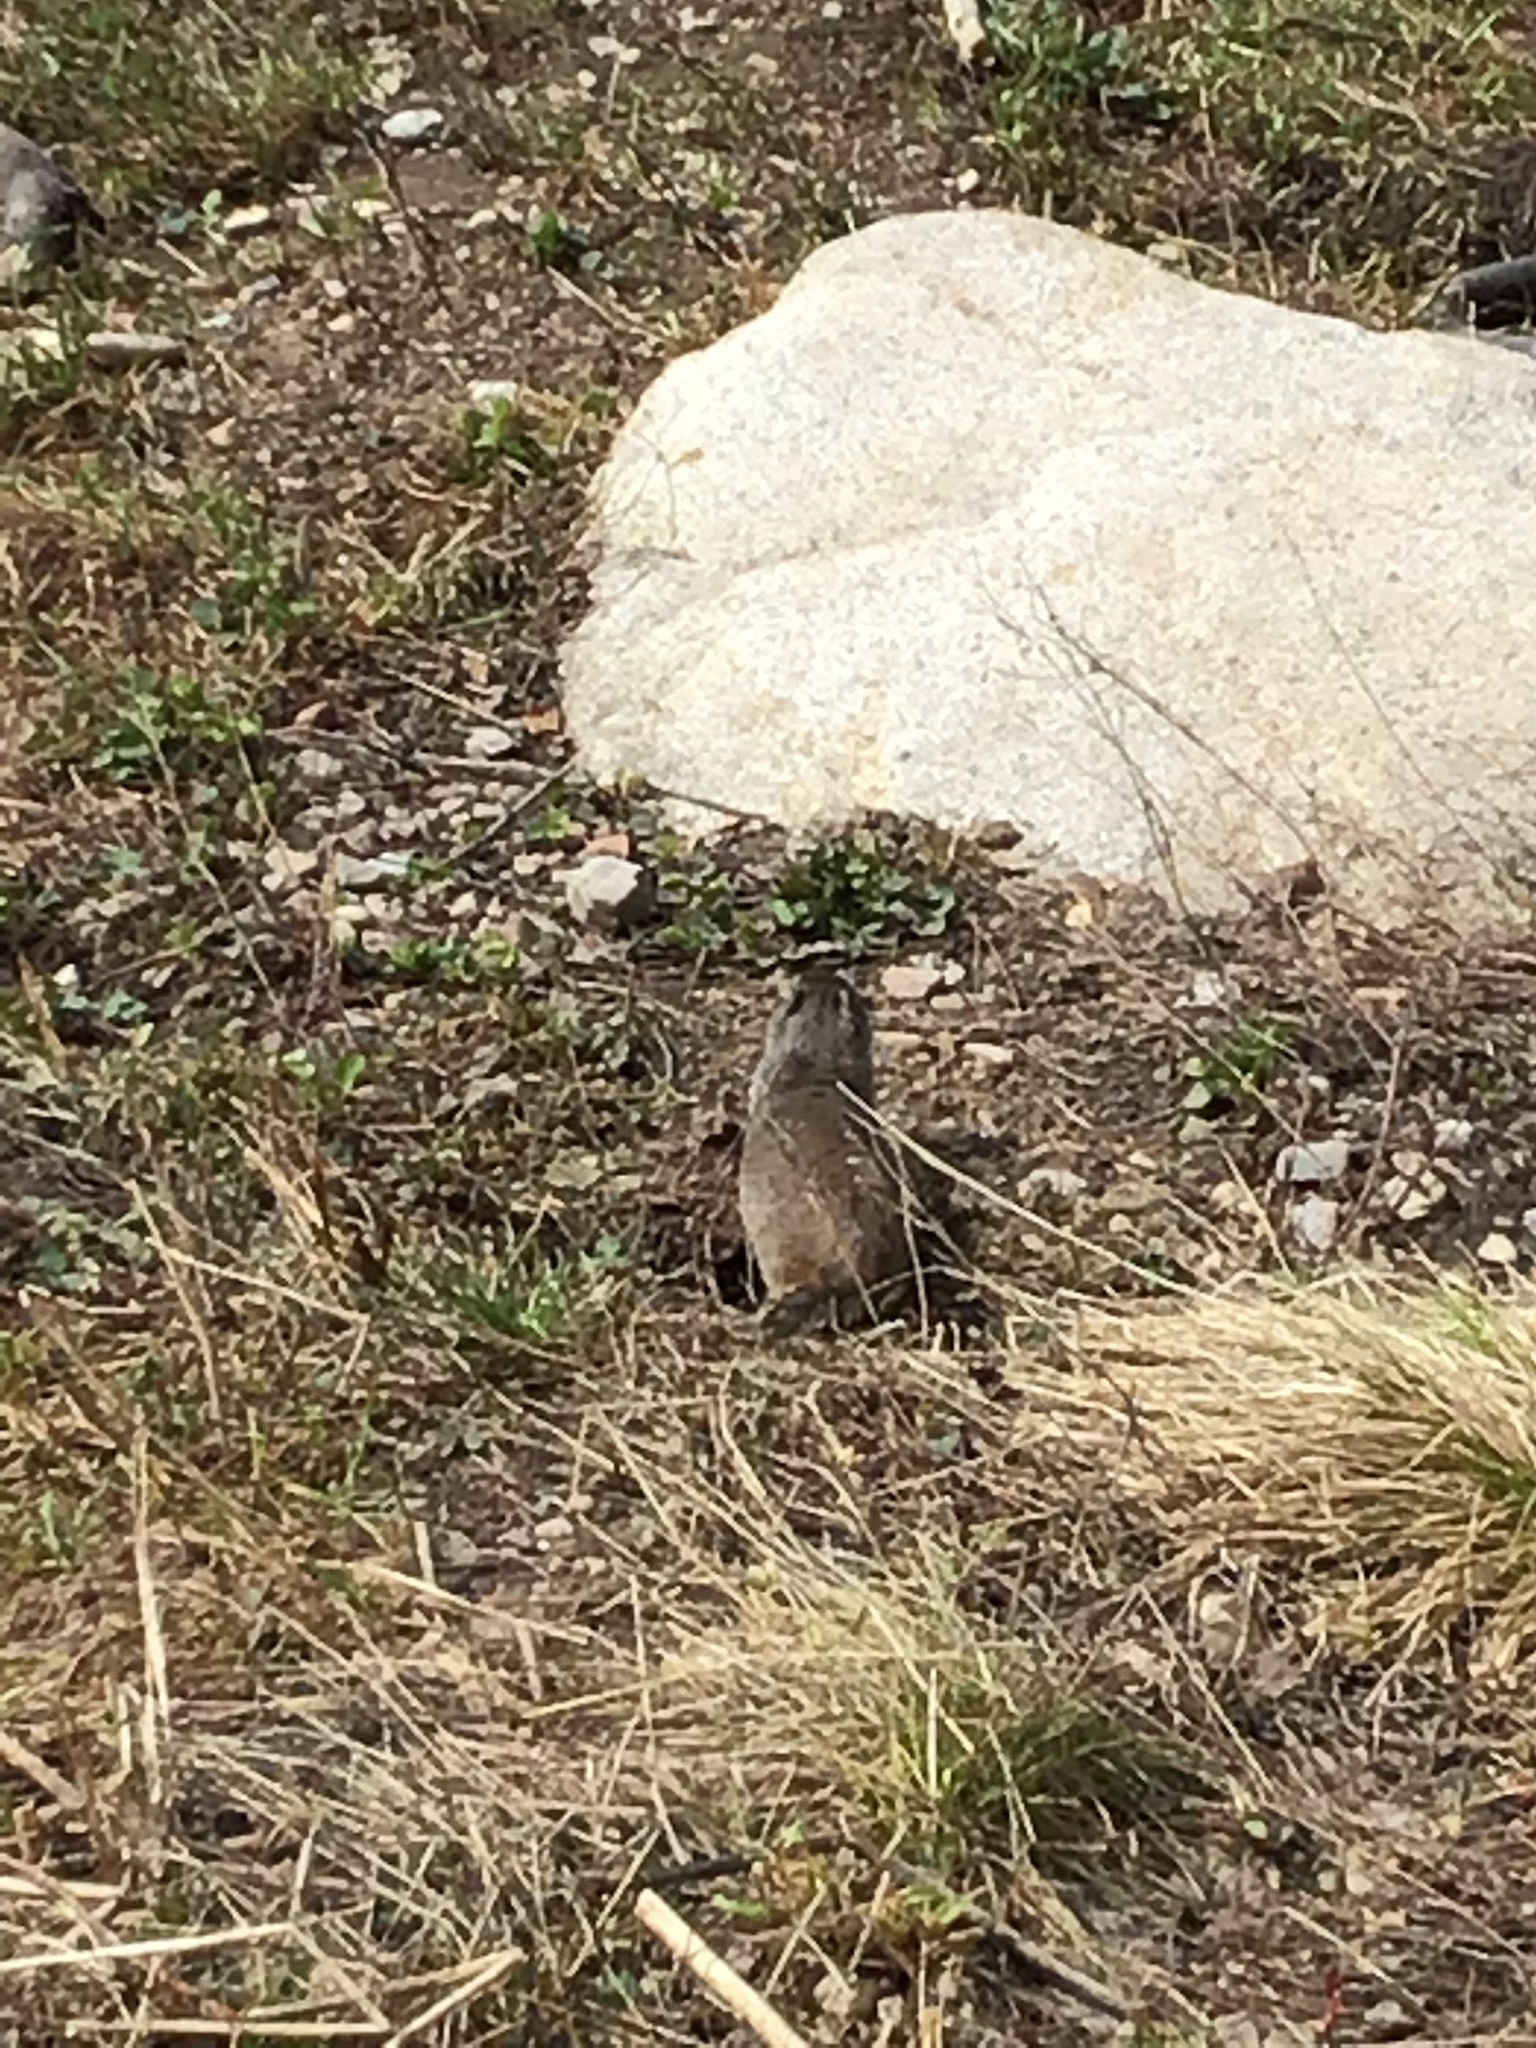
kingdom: Animalia
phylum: Chordata
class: Mammalia
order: Rodentia
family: Sciuridae
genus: Urocitellus
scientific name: Urocitellus armatus
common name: Uinta ground squirrel
